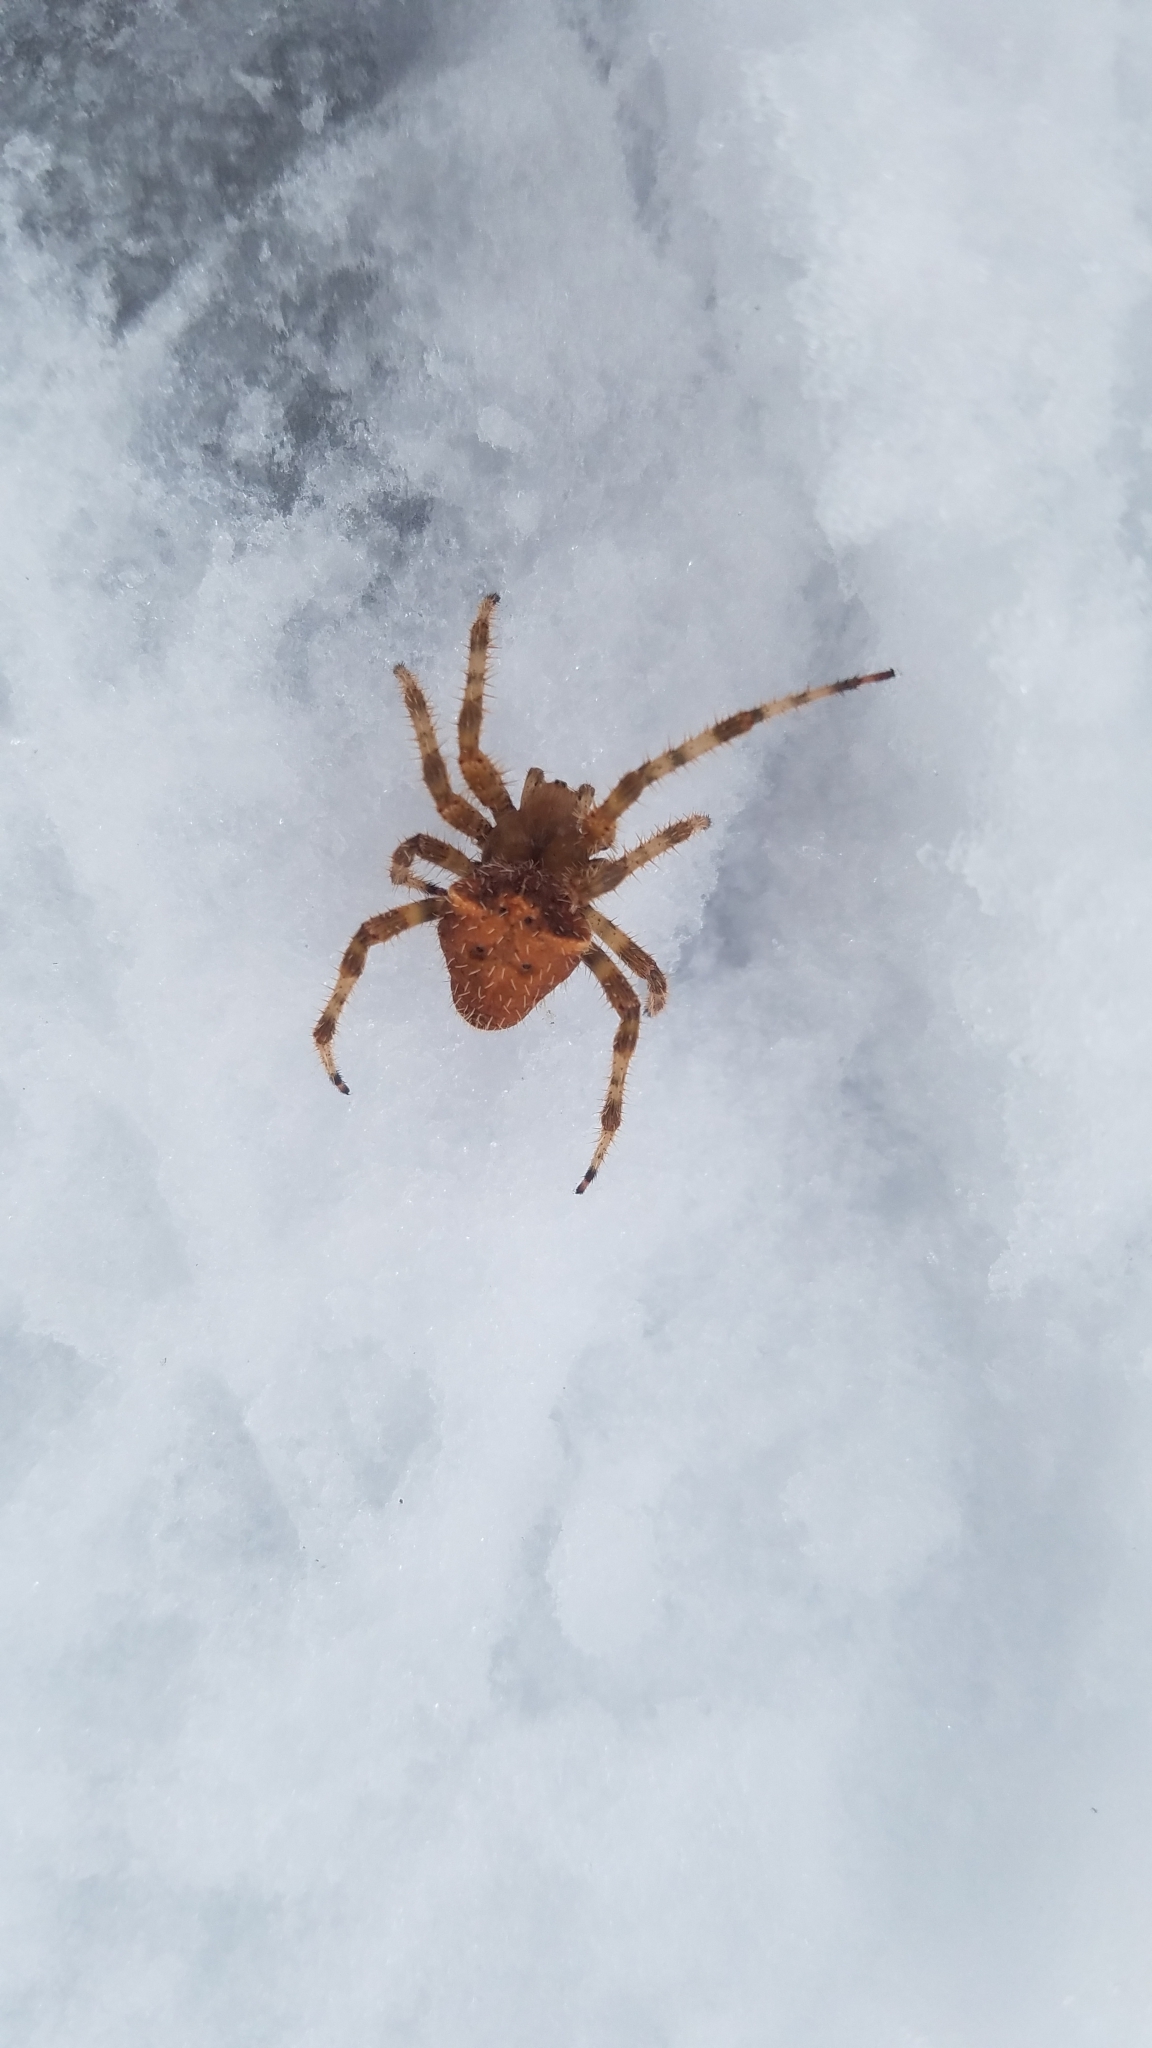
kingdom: Animalia
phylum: Arthropoda
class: Arachnida
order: Araneae
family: Araneidae
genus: Araneus
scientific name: Araneus gemmoides
